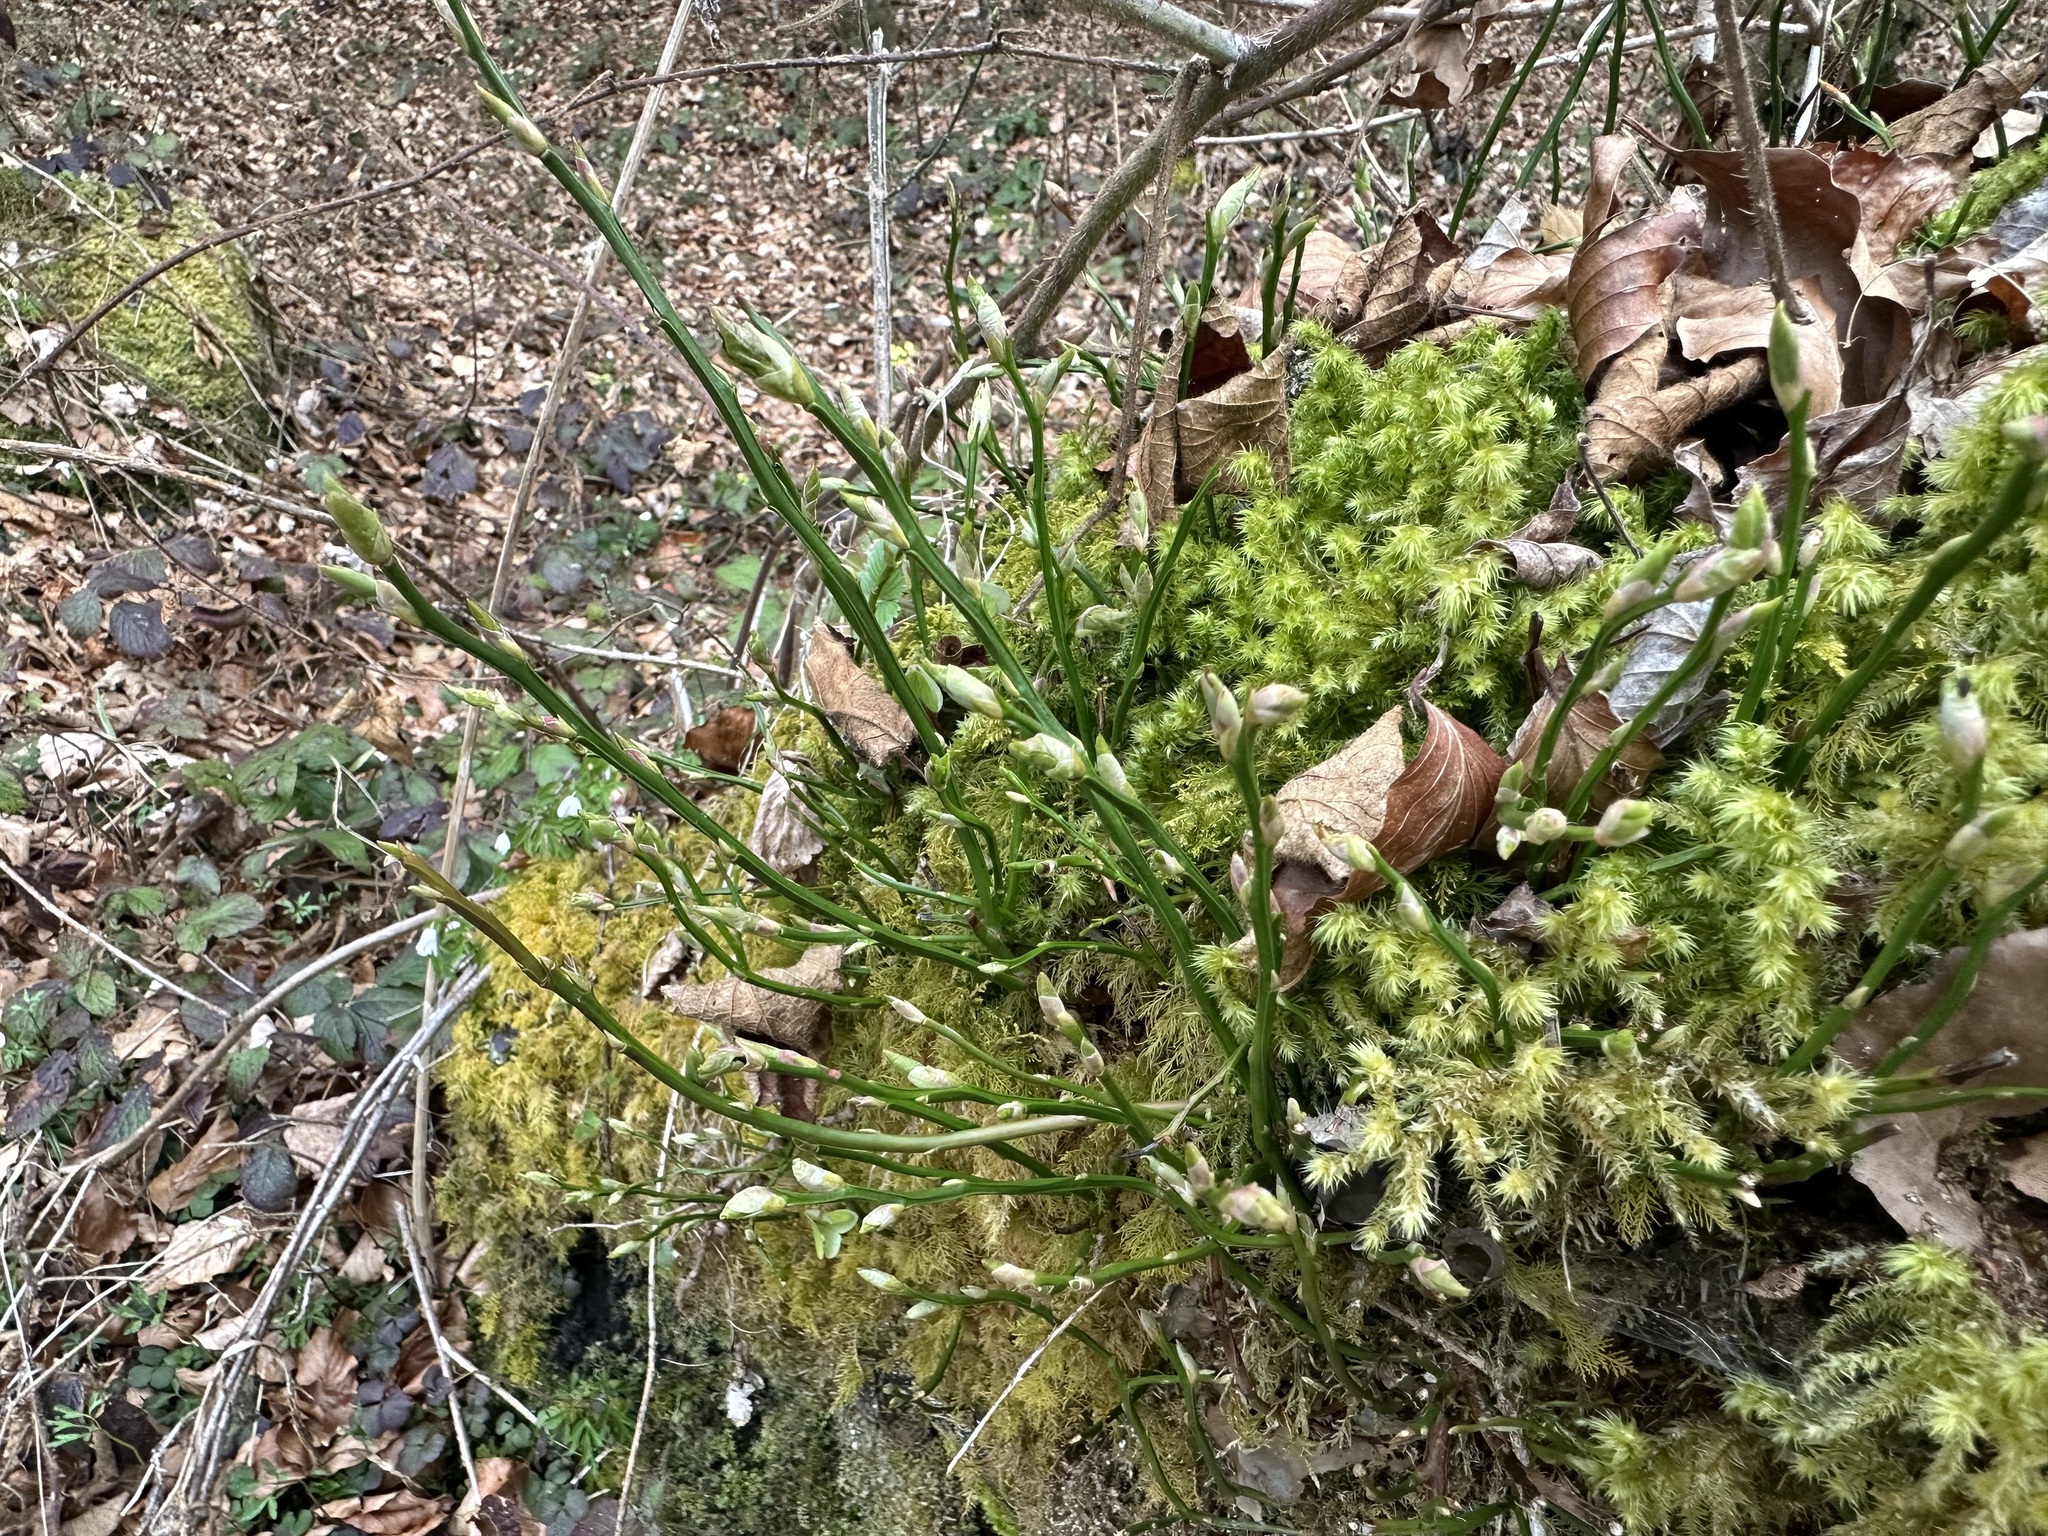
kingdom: Plantae
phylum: Tracheophyta
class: Magnoliopsida
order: Ericales
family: Ericaceae
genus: Vaccinium
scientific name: Vaccinium myrtillus
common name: Bilberry
